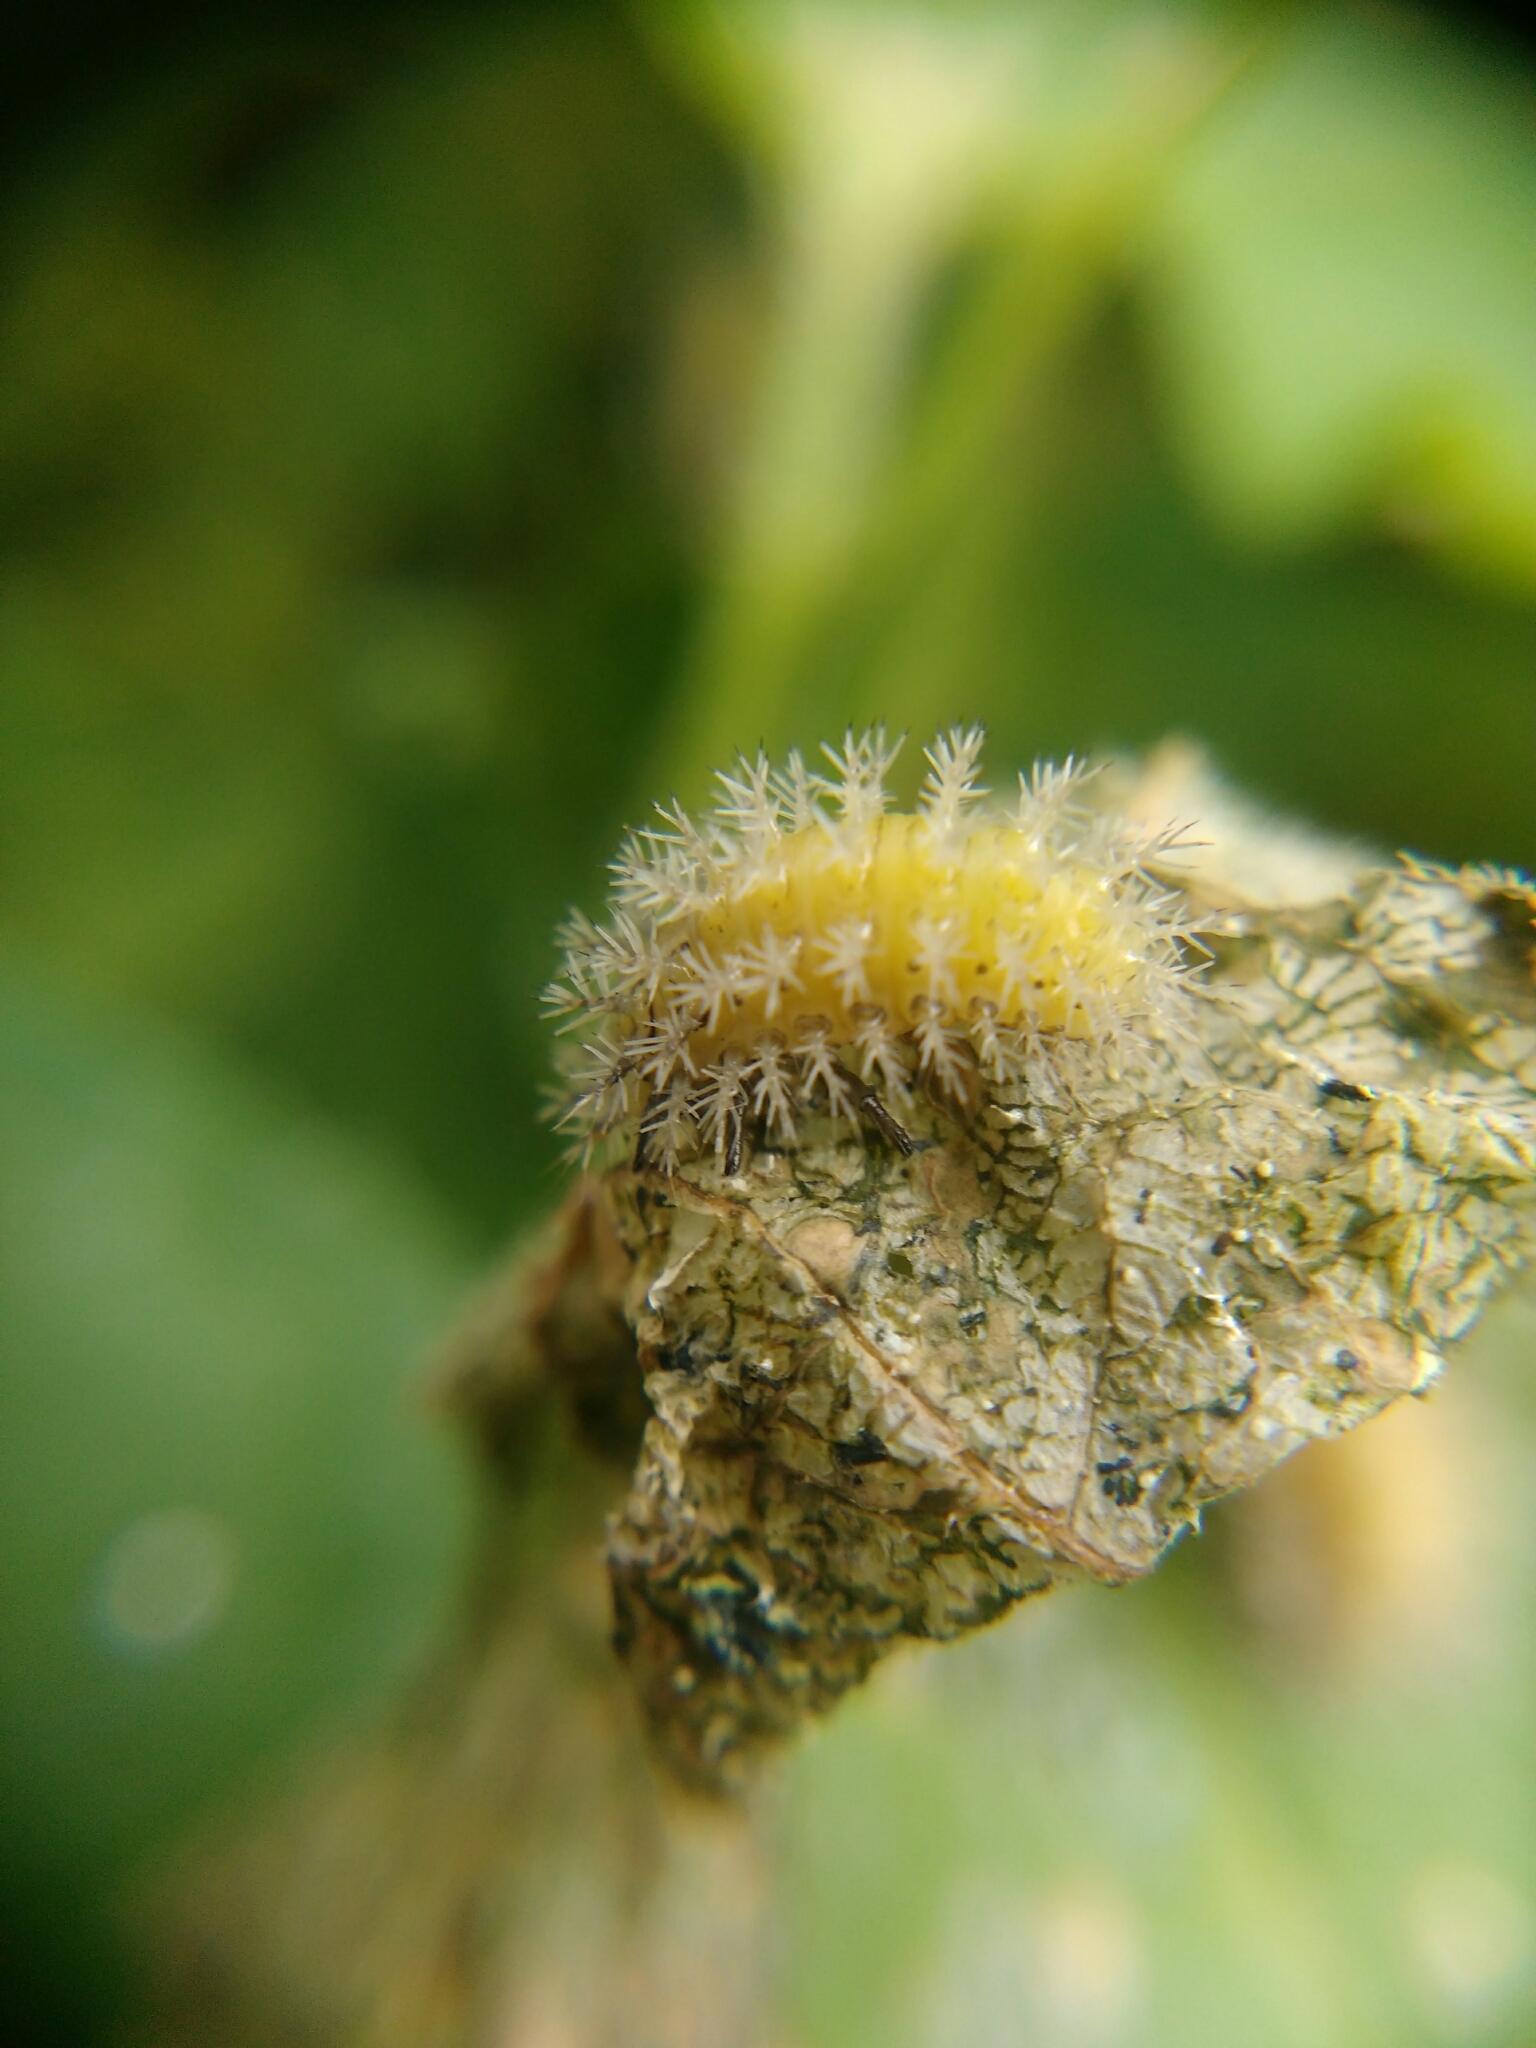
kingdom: Animalia
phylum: Arthropoda
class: Insecta
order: Coleoptera
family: Coccinellidae
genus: Henosepilachna
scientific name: Henosepilachna argus
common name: Bryony ladybird
